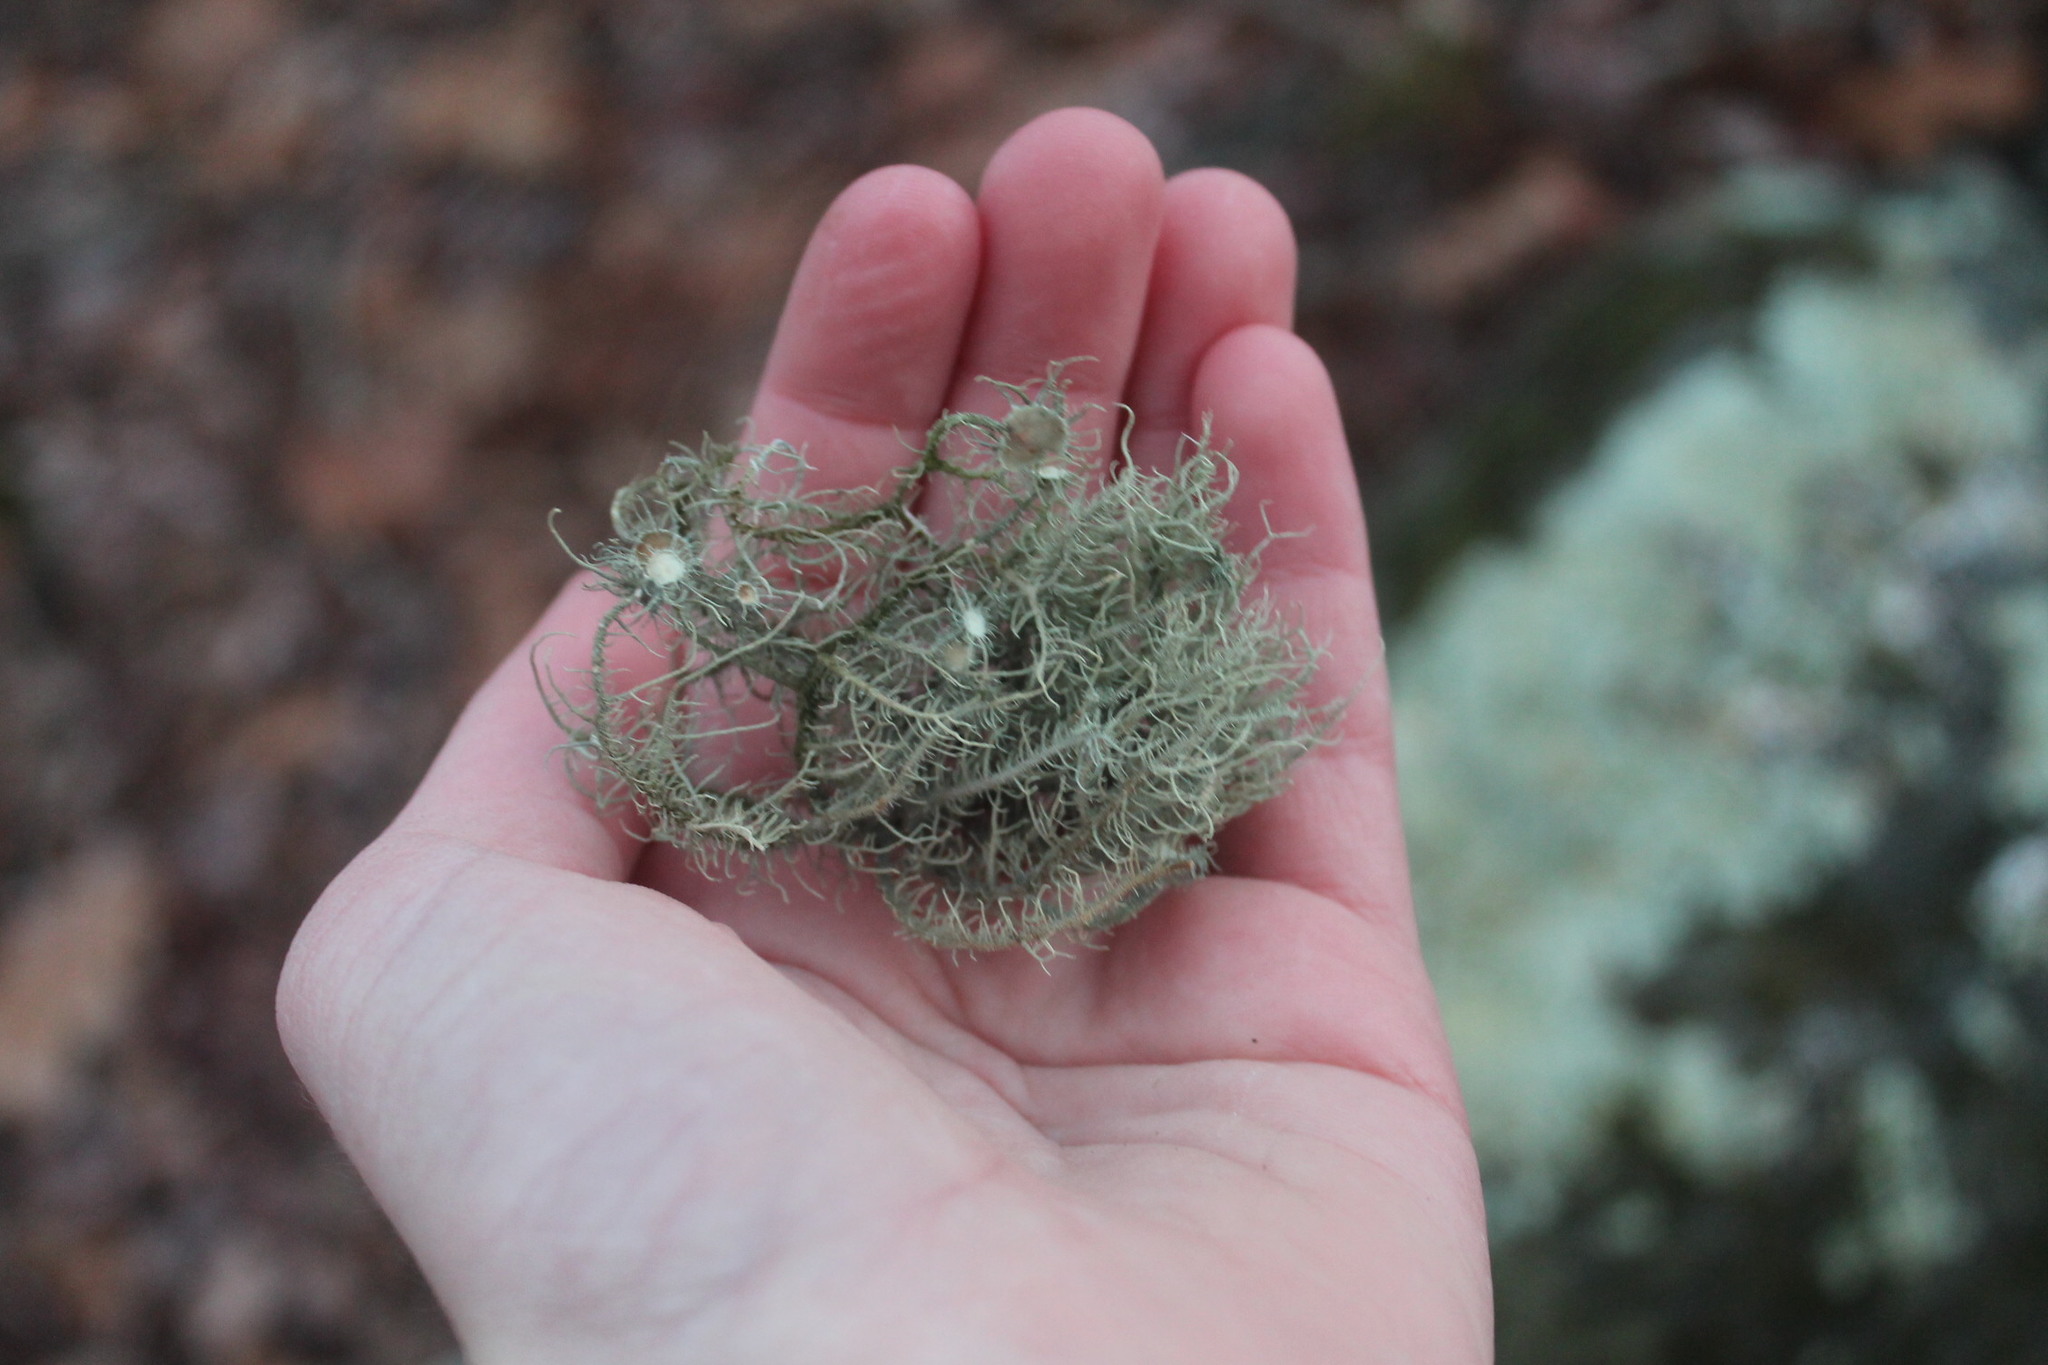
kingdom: Fungi
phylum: Ascomycota
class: Lecanoromycetes
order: Lecanorales
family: Parmeliaceae
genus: Usnea
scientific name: Usnea strigosa
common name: Bushy beard lichen
